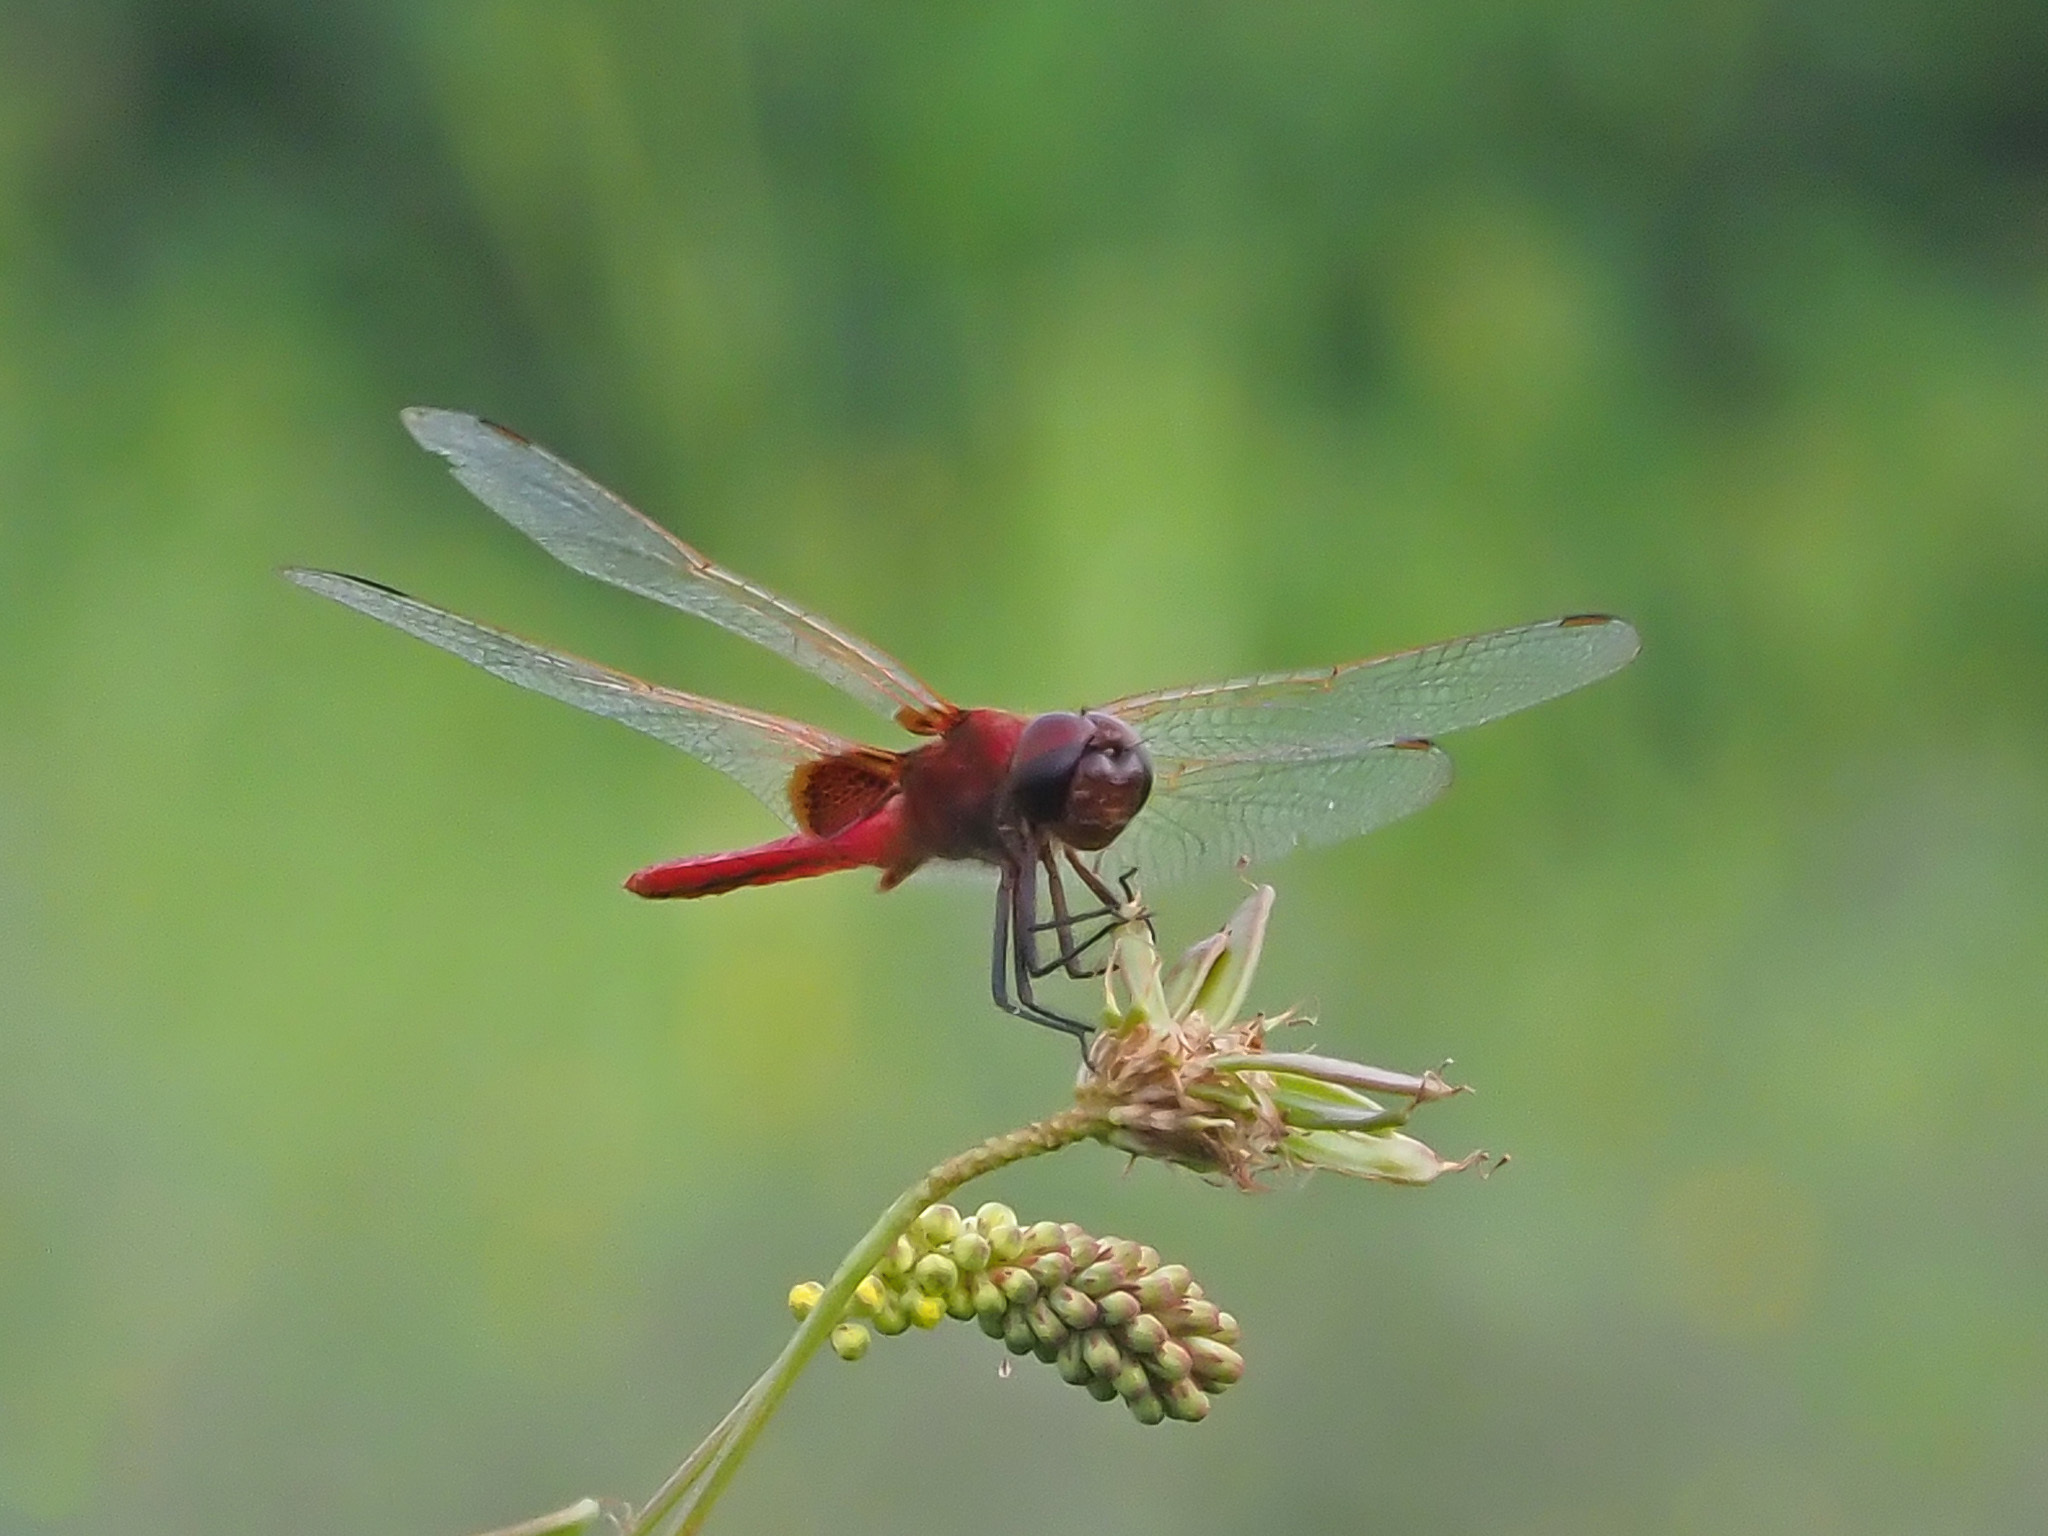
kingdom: Animalia
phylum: Arthropoda
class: Insecta
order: Odonata
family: Libellulidae
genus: Urothemis
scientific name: Urothemis signata
